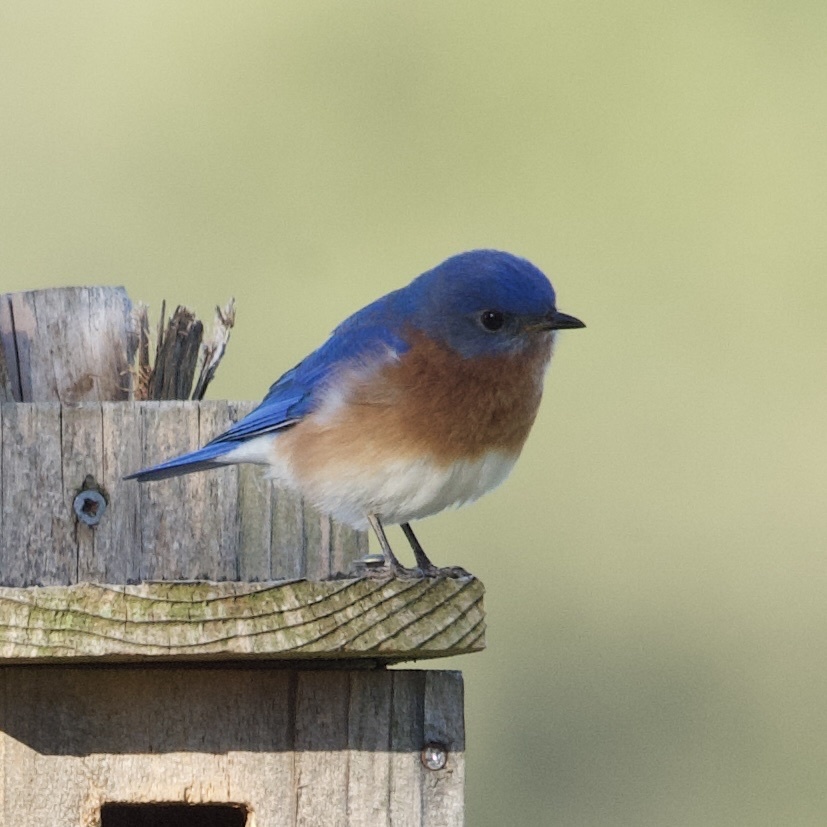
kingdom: Animalia
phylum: Chordata
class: Aves
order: Passeriformes
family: Turdidae
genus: Sialia
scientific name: Sialia sialis
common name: Eastern bluebird
